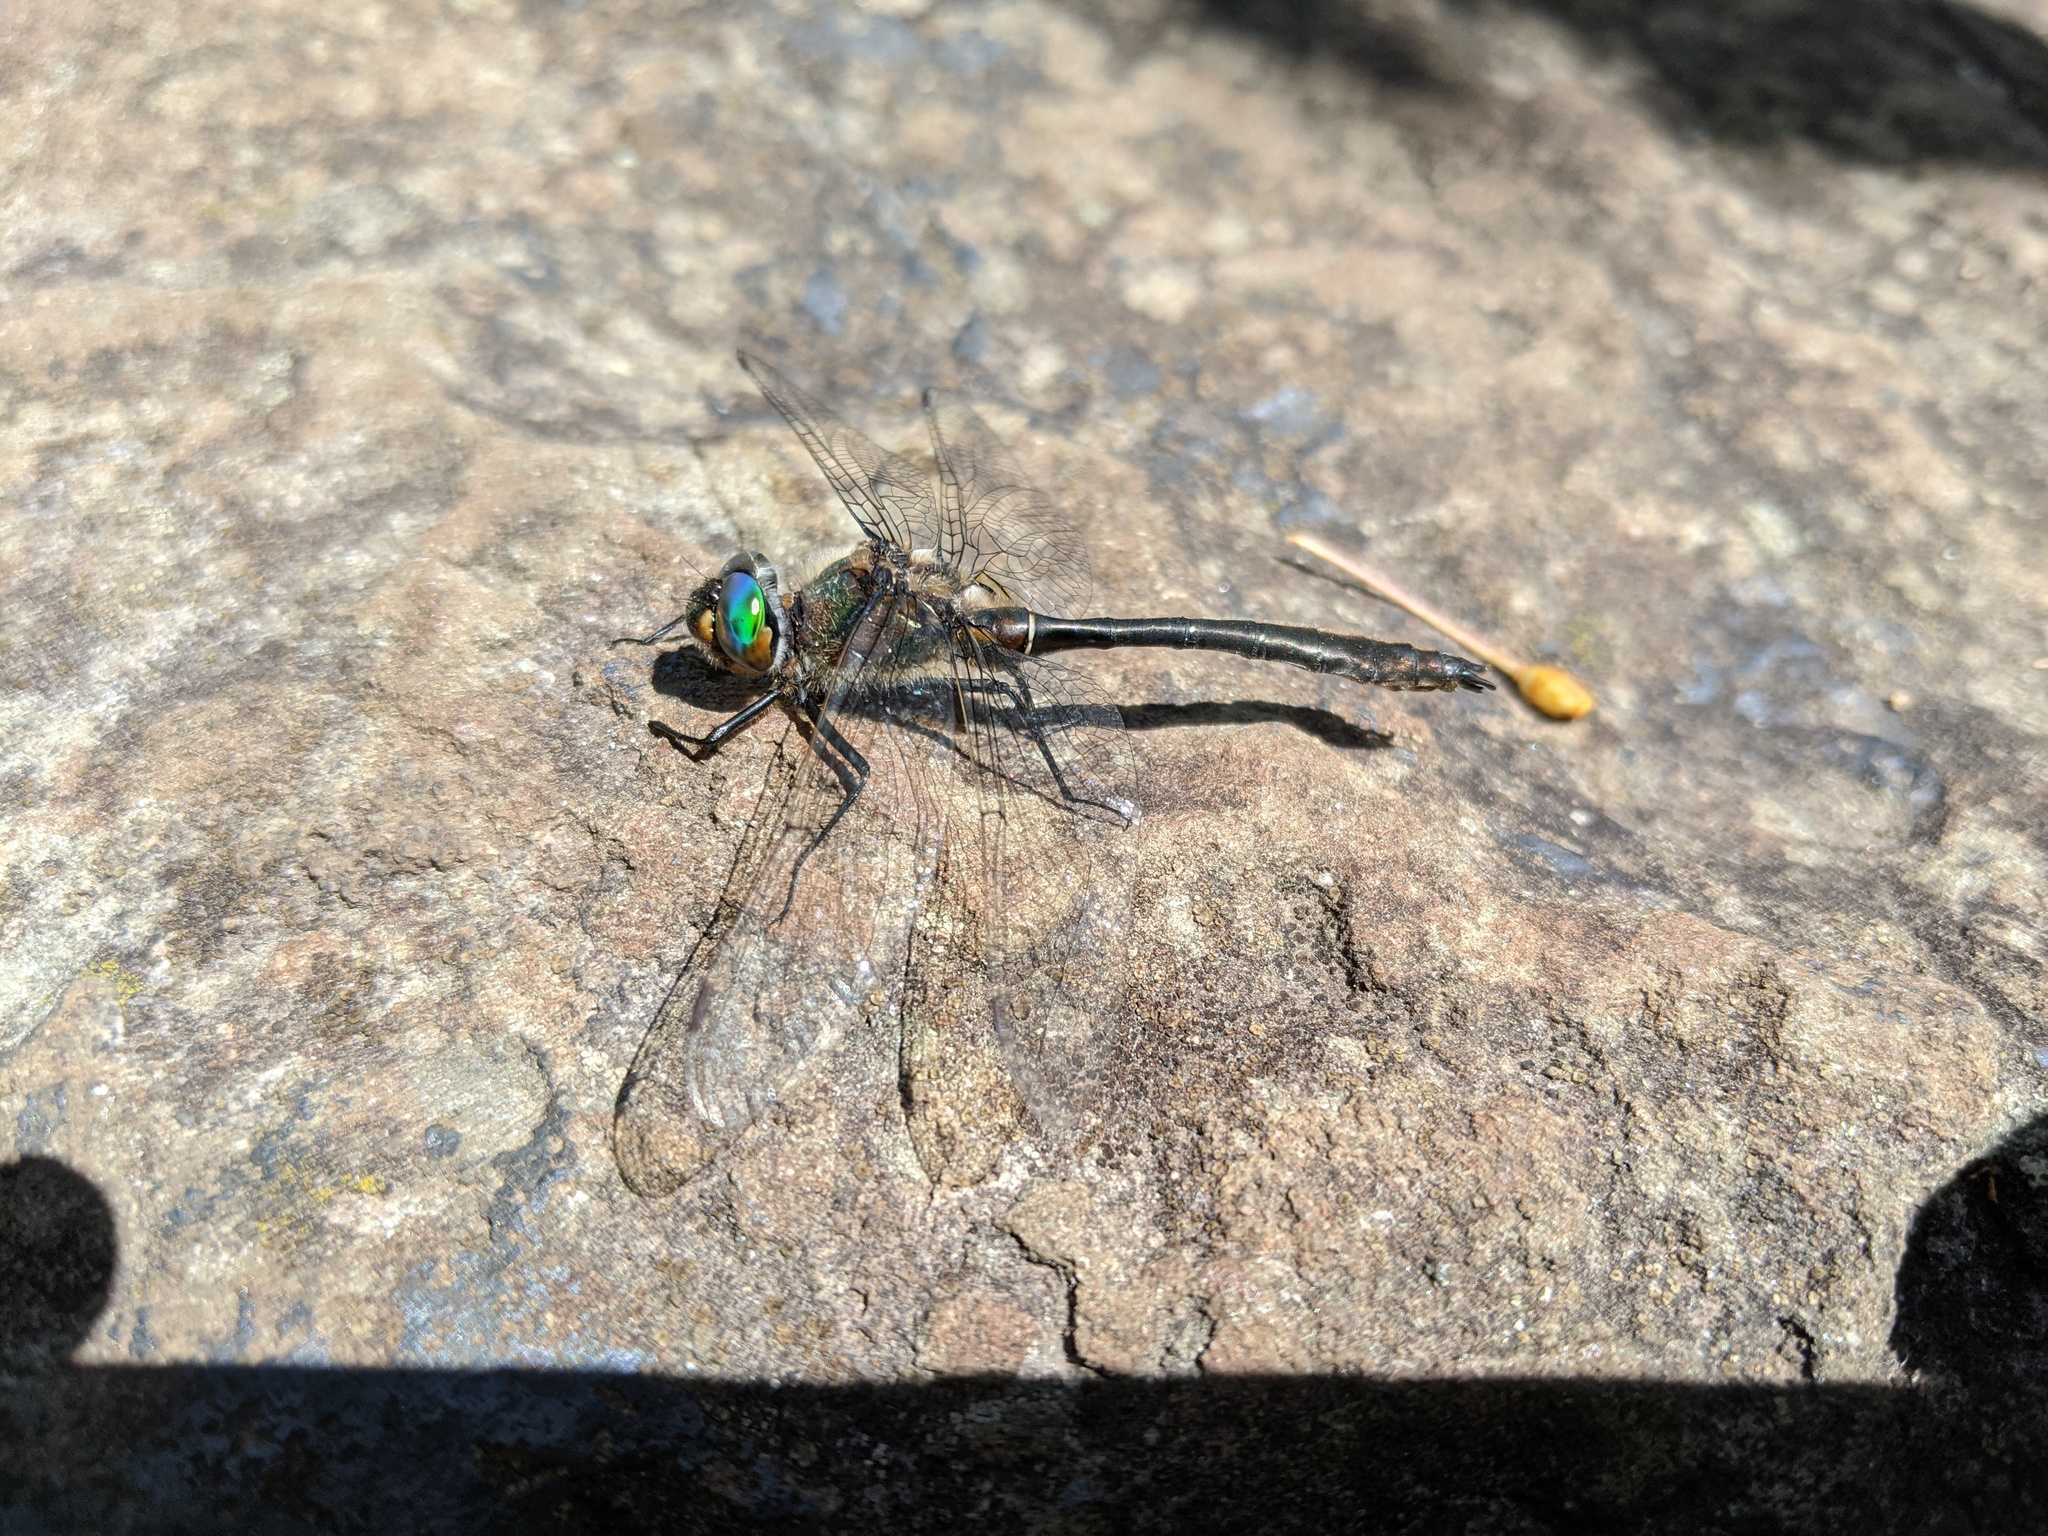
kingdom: Animalia
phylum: Arthropoda
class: Insecta
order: Odonata
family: Corduliidae
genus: Cordulia
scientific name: Cordulia shurtleffii
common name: American emerald
